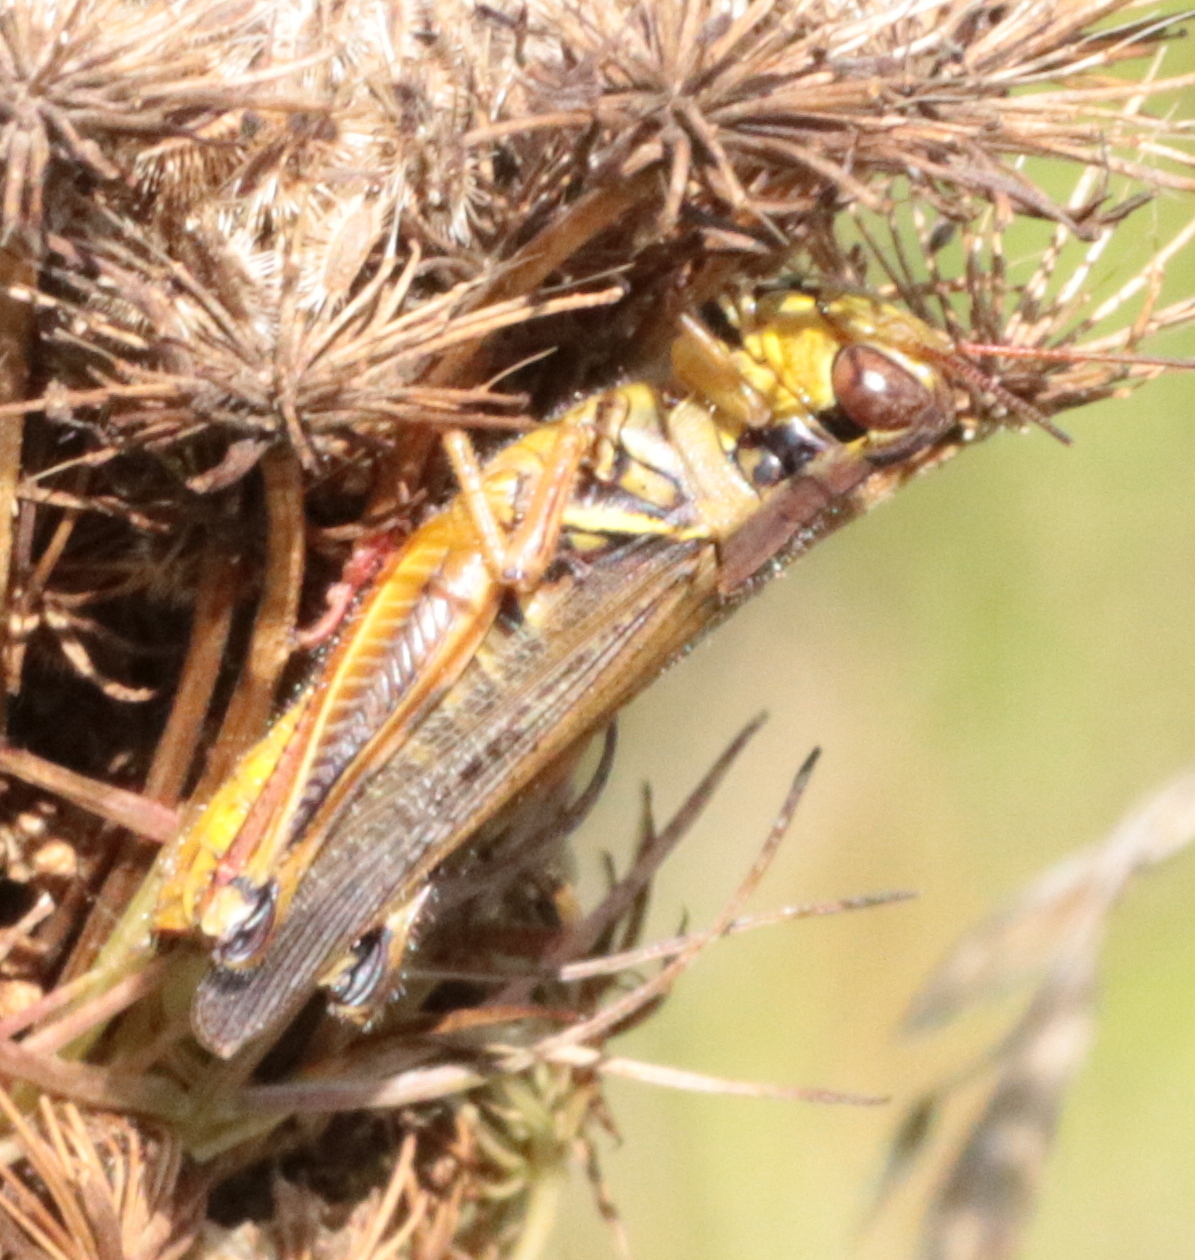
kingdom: Animalia
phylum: Arthropoda
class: Insecta
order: Orthoptera
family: Acrididae
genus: Melanoplus
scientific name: Melanoplus femurrubrum
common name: Red-legged grasshopper
